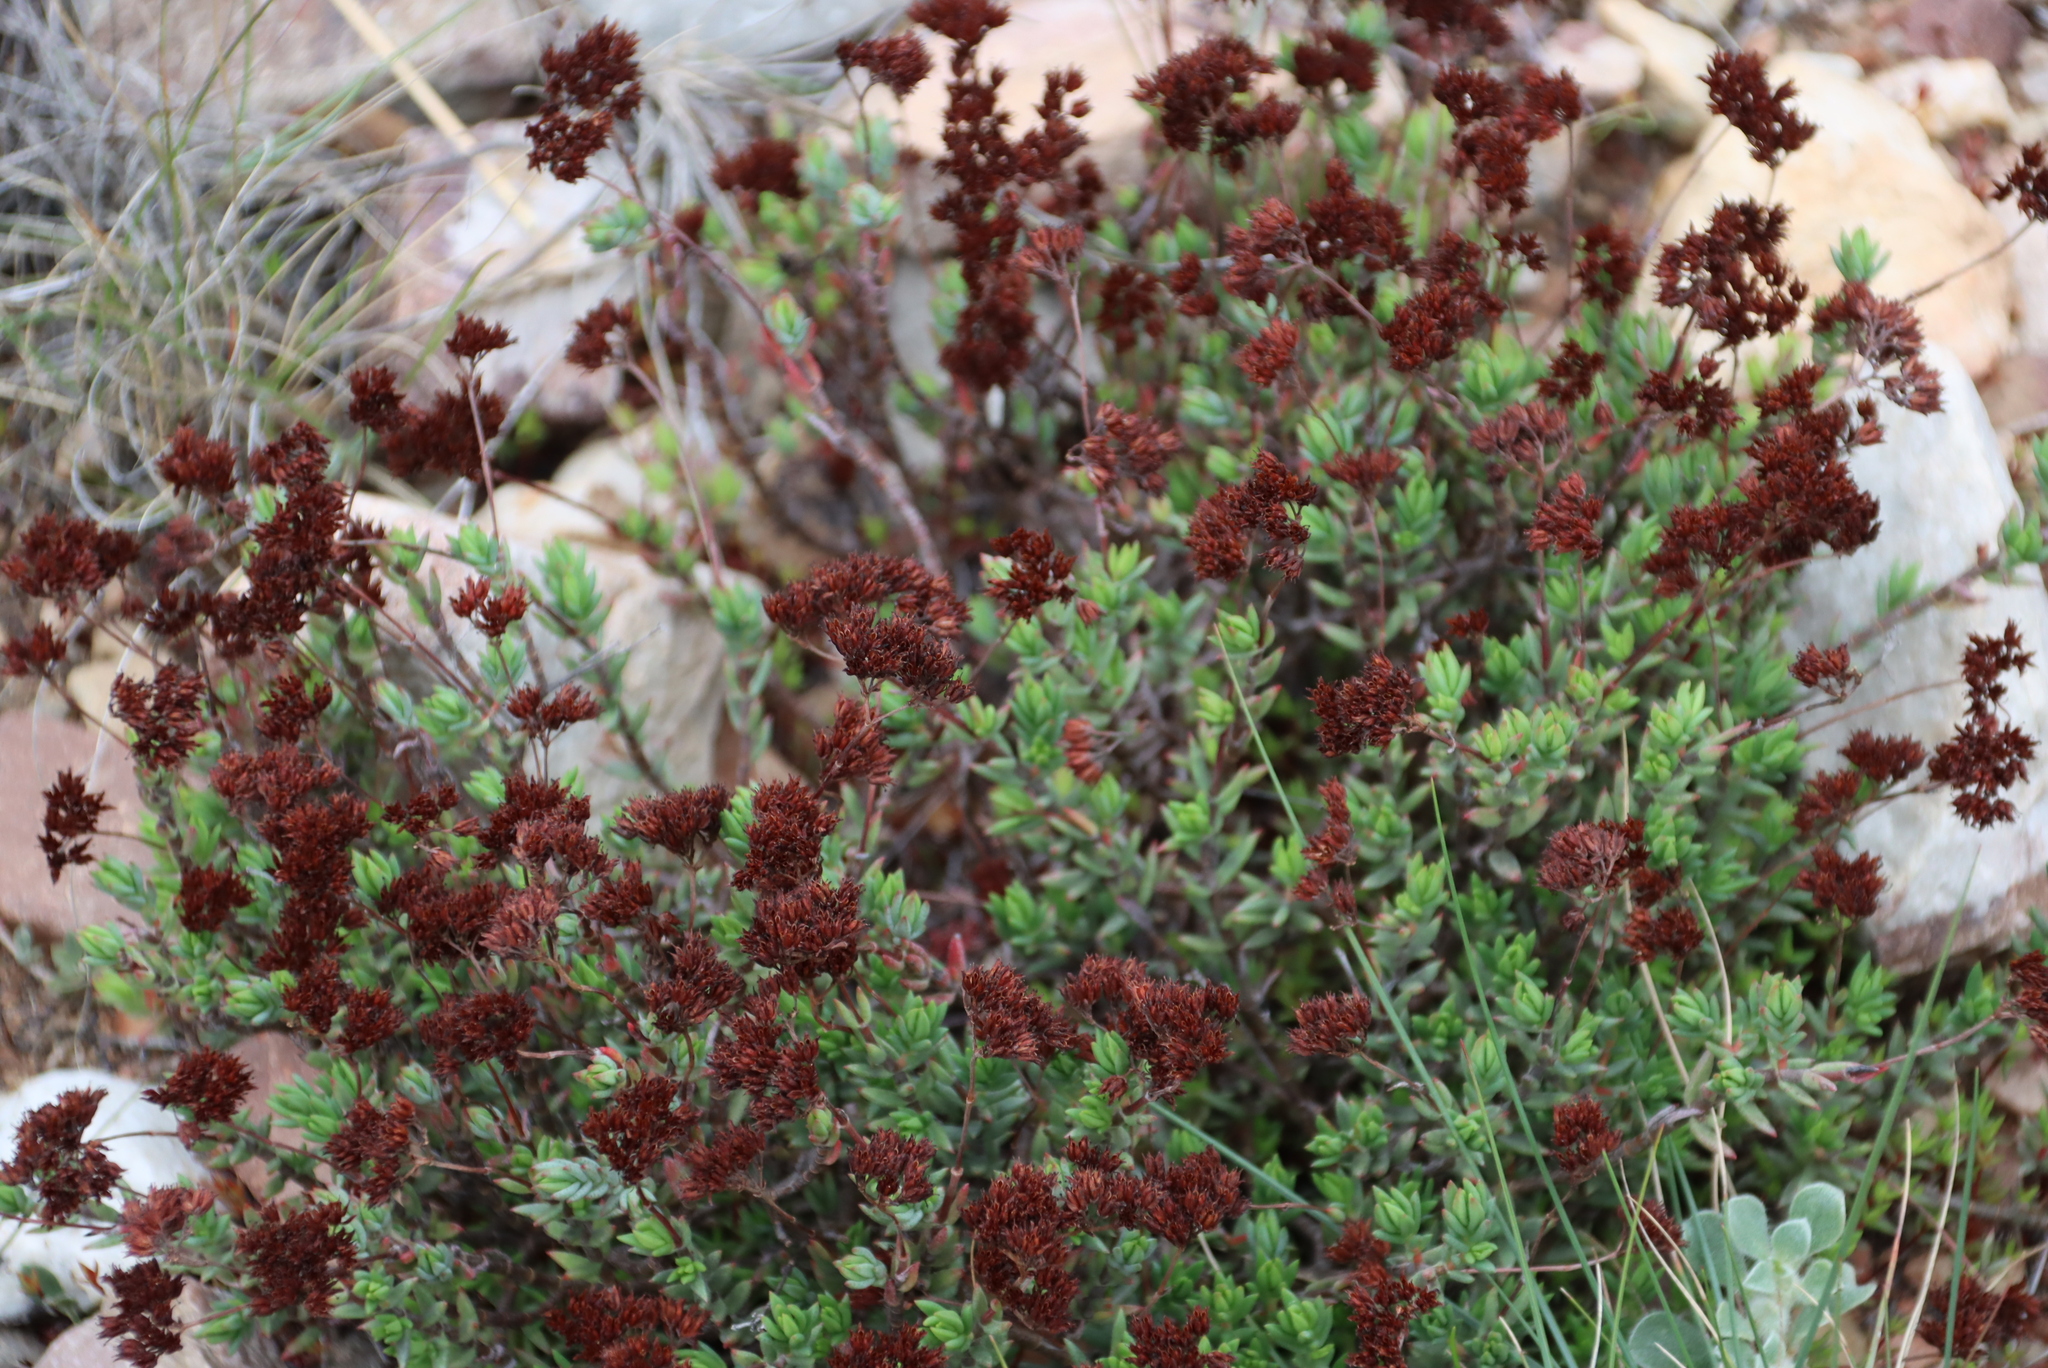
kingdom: Plantae
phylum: Tracheophyta
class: Magnoliopsida
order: Saxifragales
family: Crassulaceae
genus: Crassula
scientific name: Crassula biplanata
